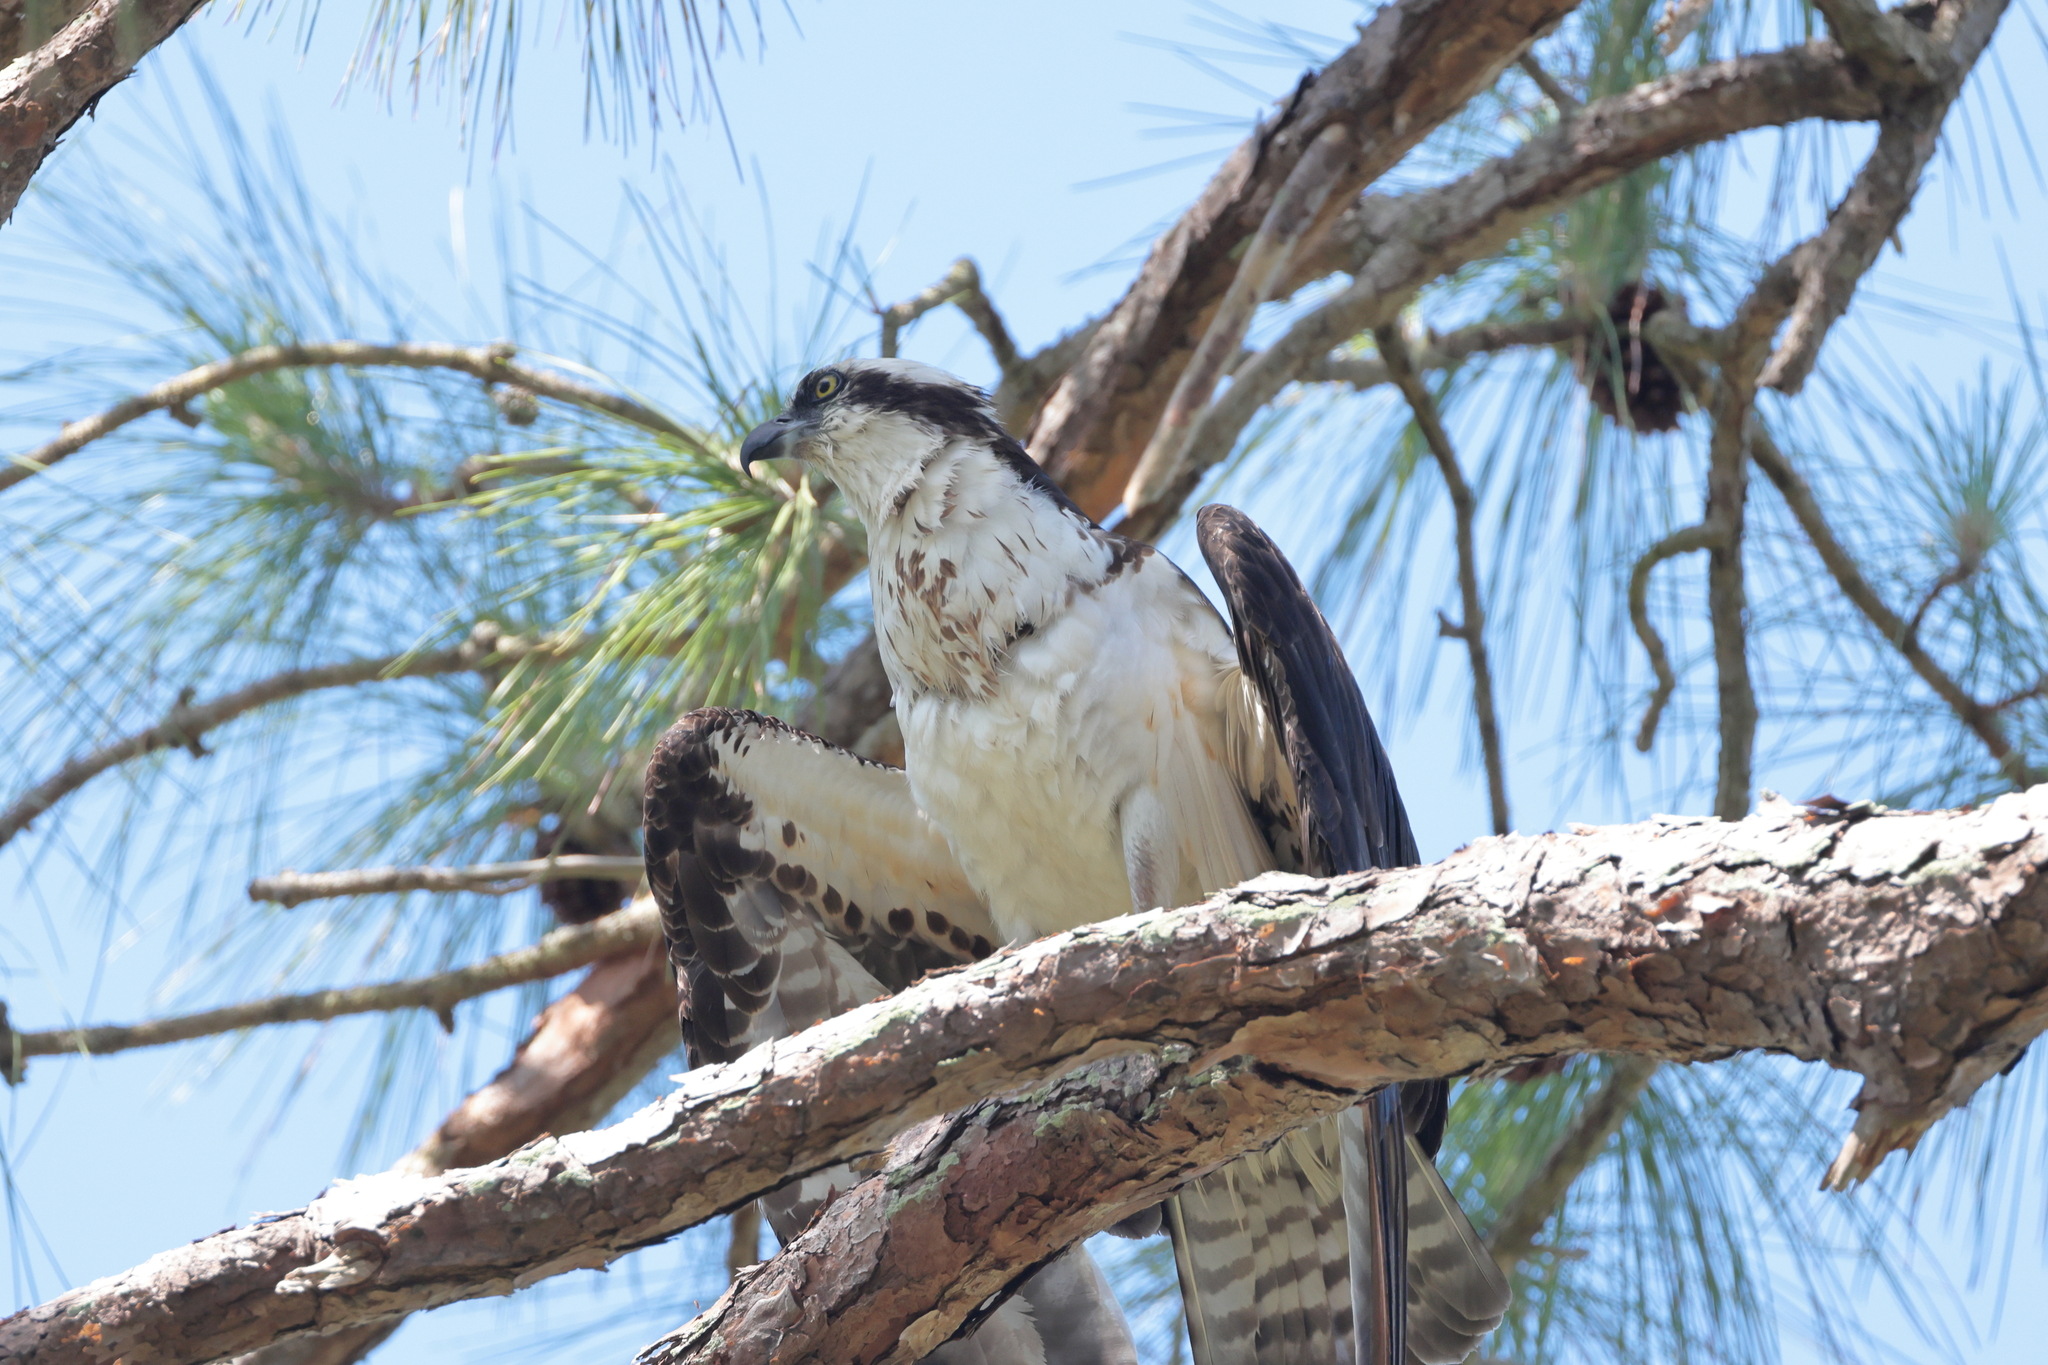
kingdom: Animalia
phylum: Chordata
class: Aves
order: Accipitriformes
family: Pandionidae
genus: Pandion
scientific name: Pandion haliaetus
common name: Osprey
